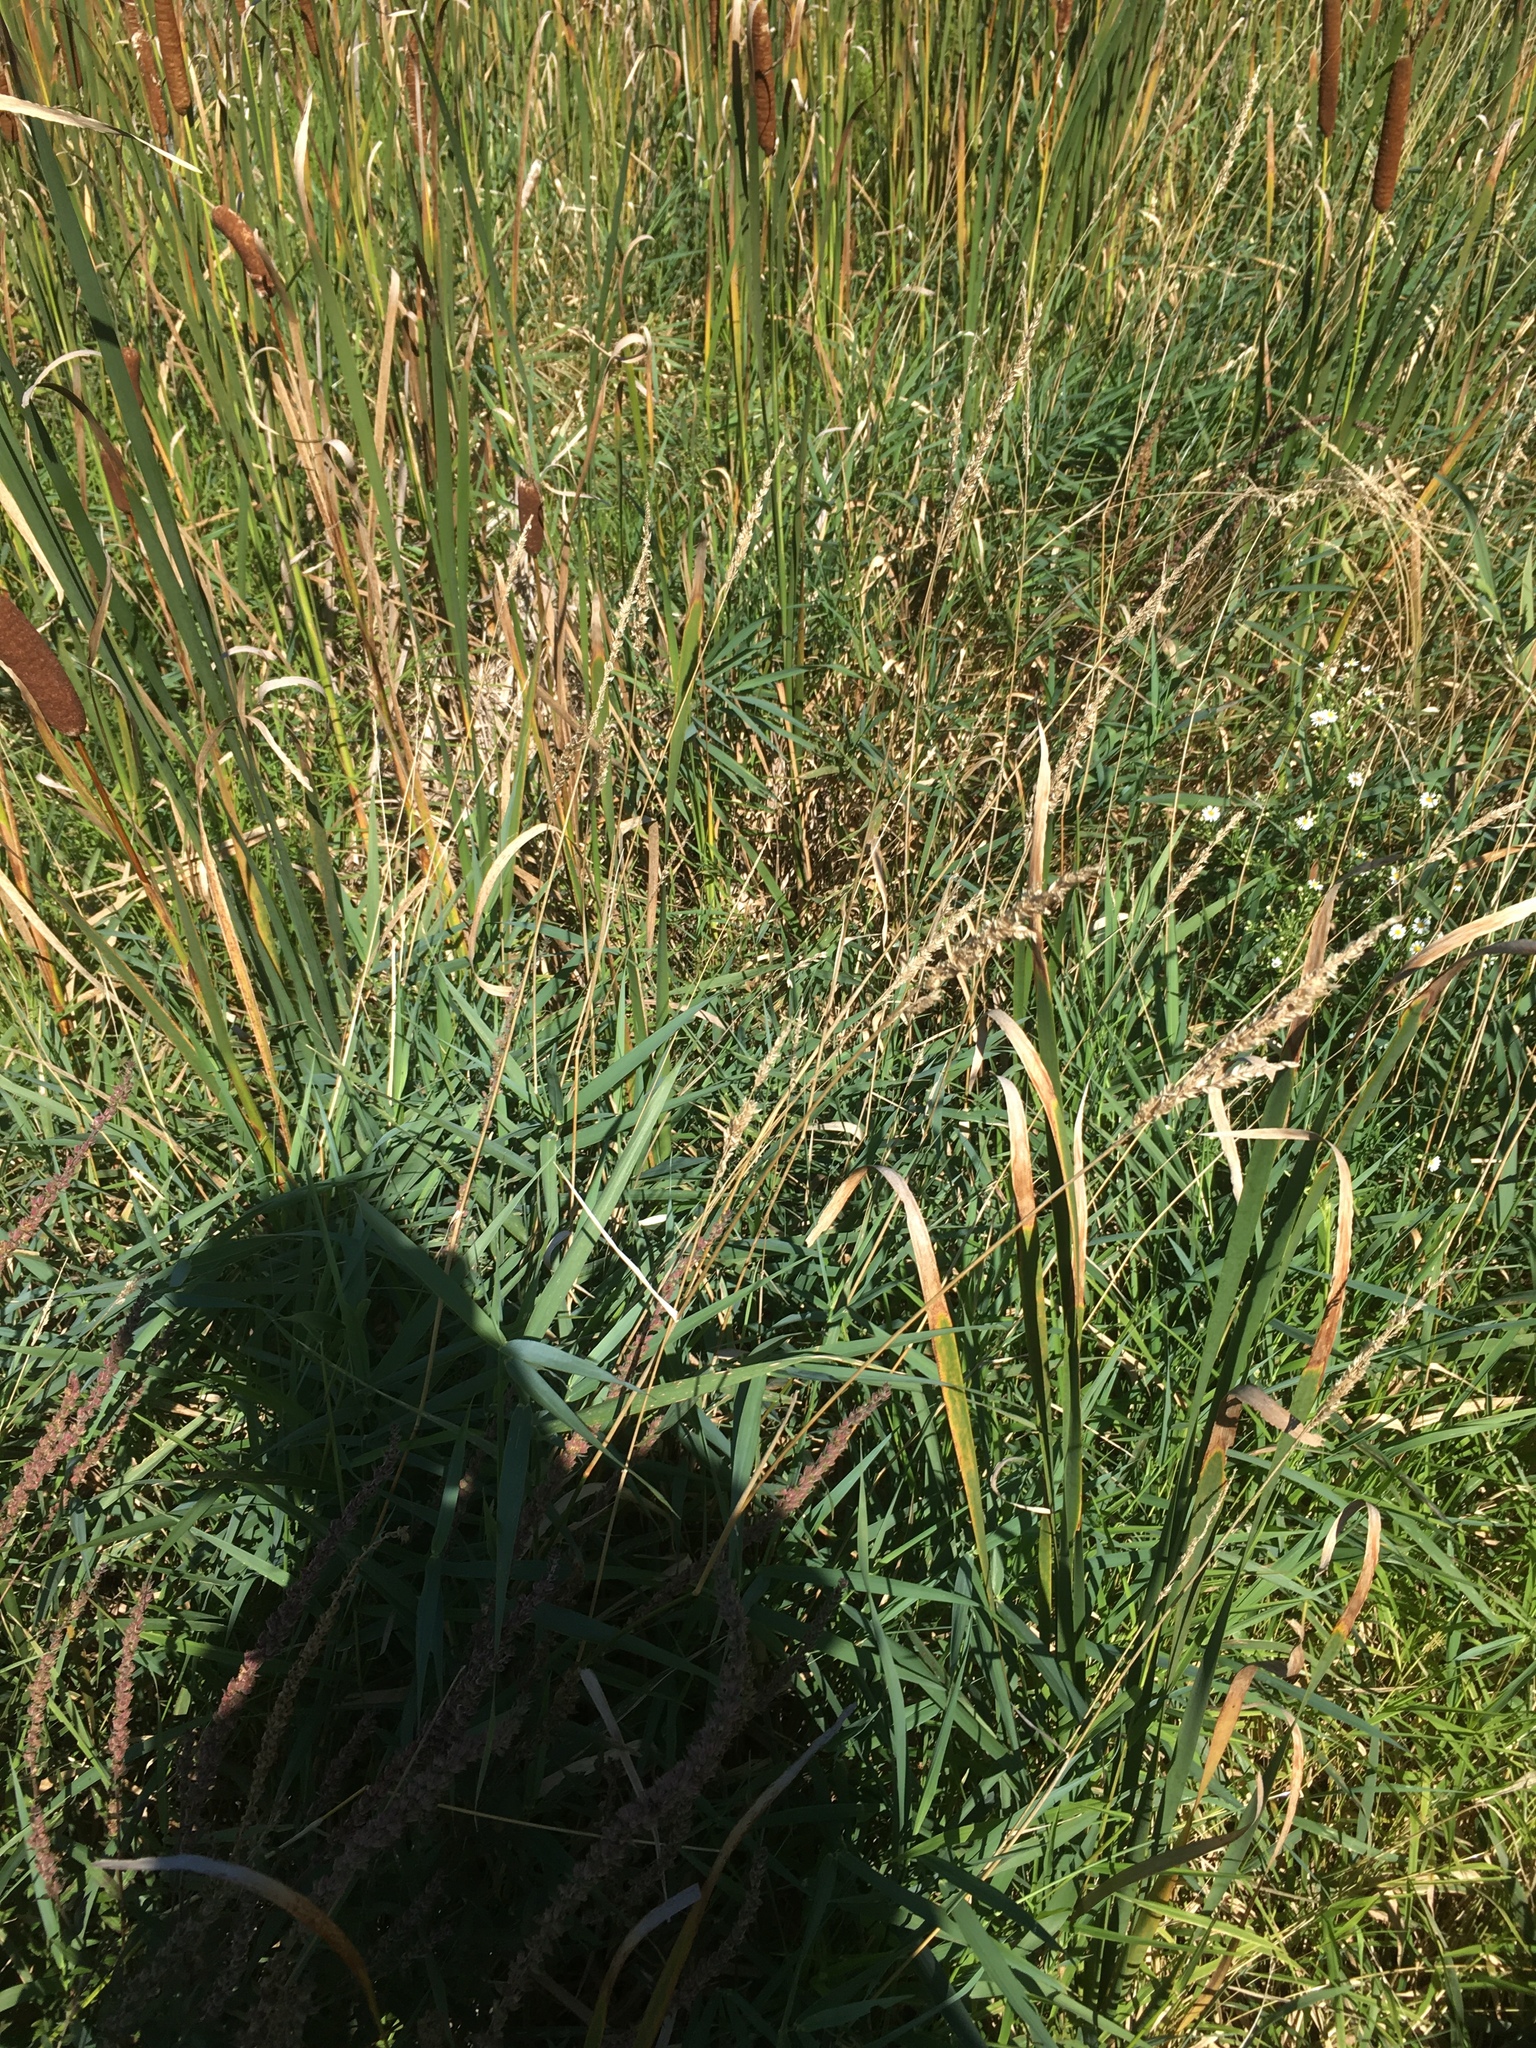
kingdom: Plantae
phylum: Tracheophyta
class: Liliopsida
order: Poales
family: Poaceae
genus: Phalaris
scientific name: Phalaris arundinacea
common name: Reed canary-grass
